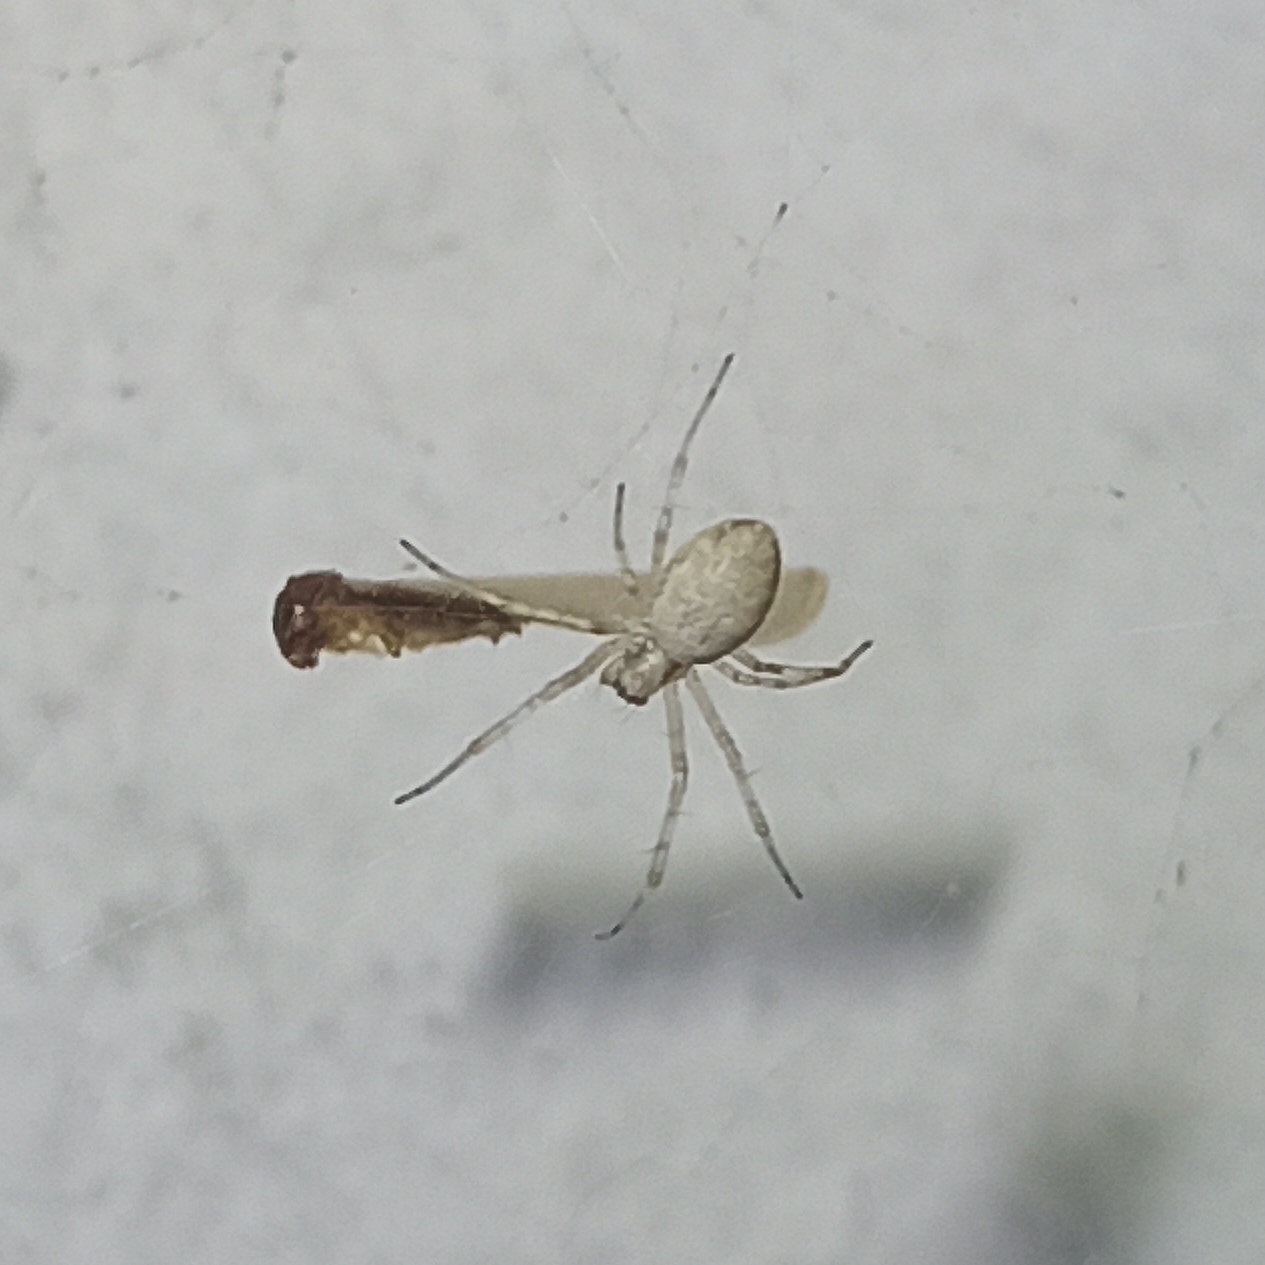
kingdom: Animalia
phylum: Arthropoda
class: Arachnida
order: Araneae
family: Araneidae
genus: Nephilingis
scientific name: Nephilingis cruentata
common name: African hermit spider
